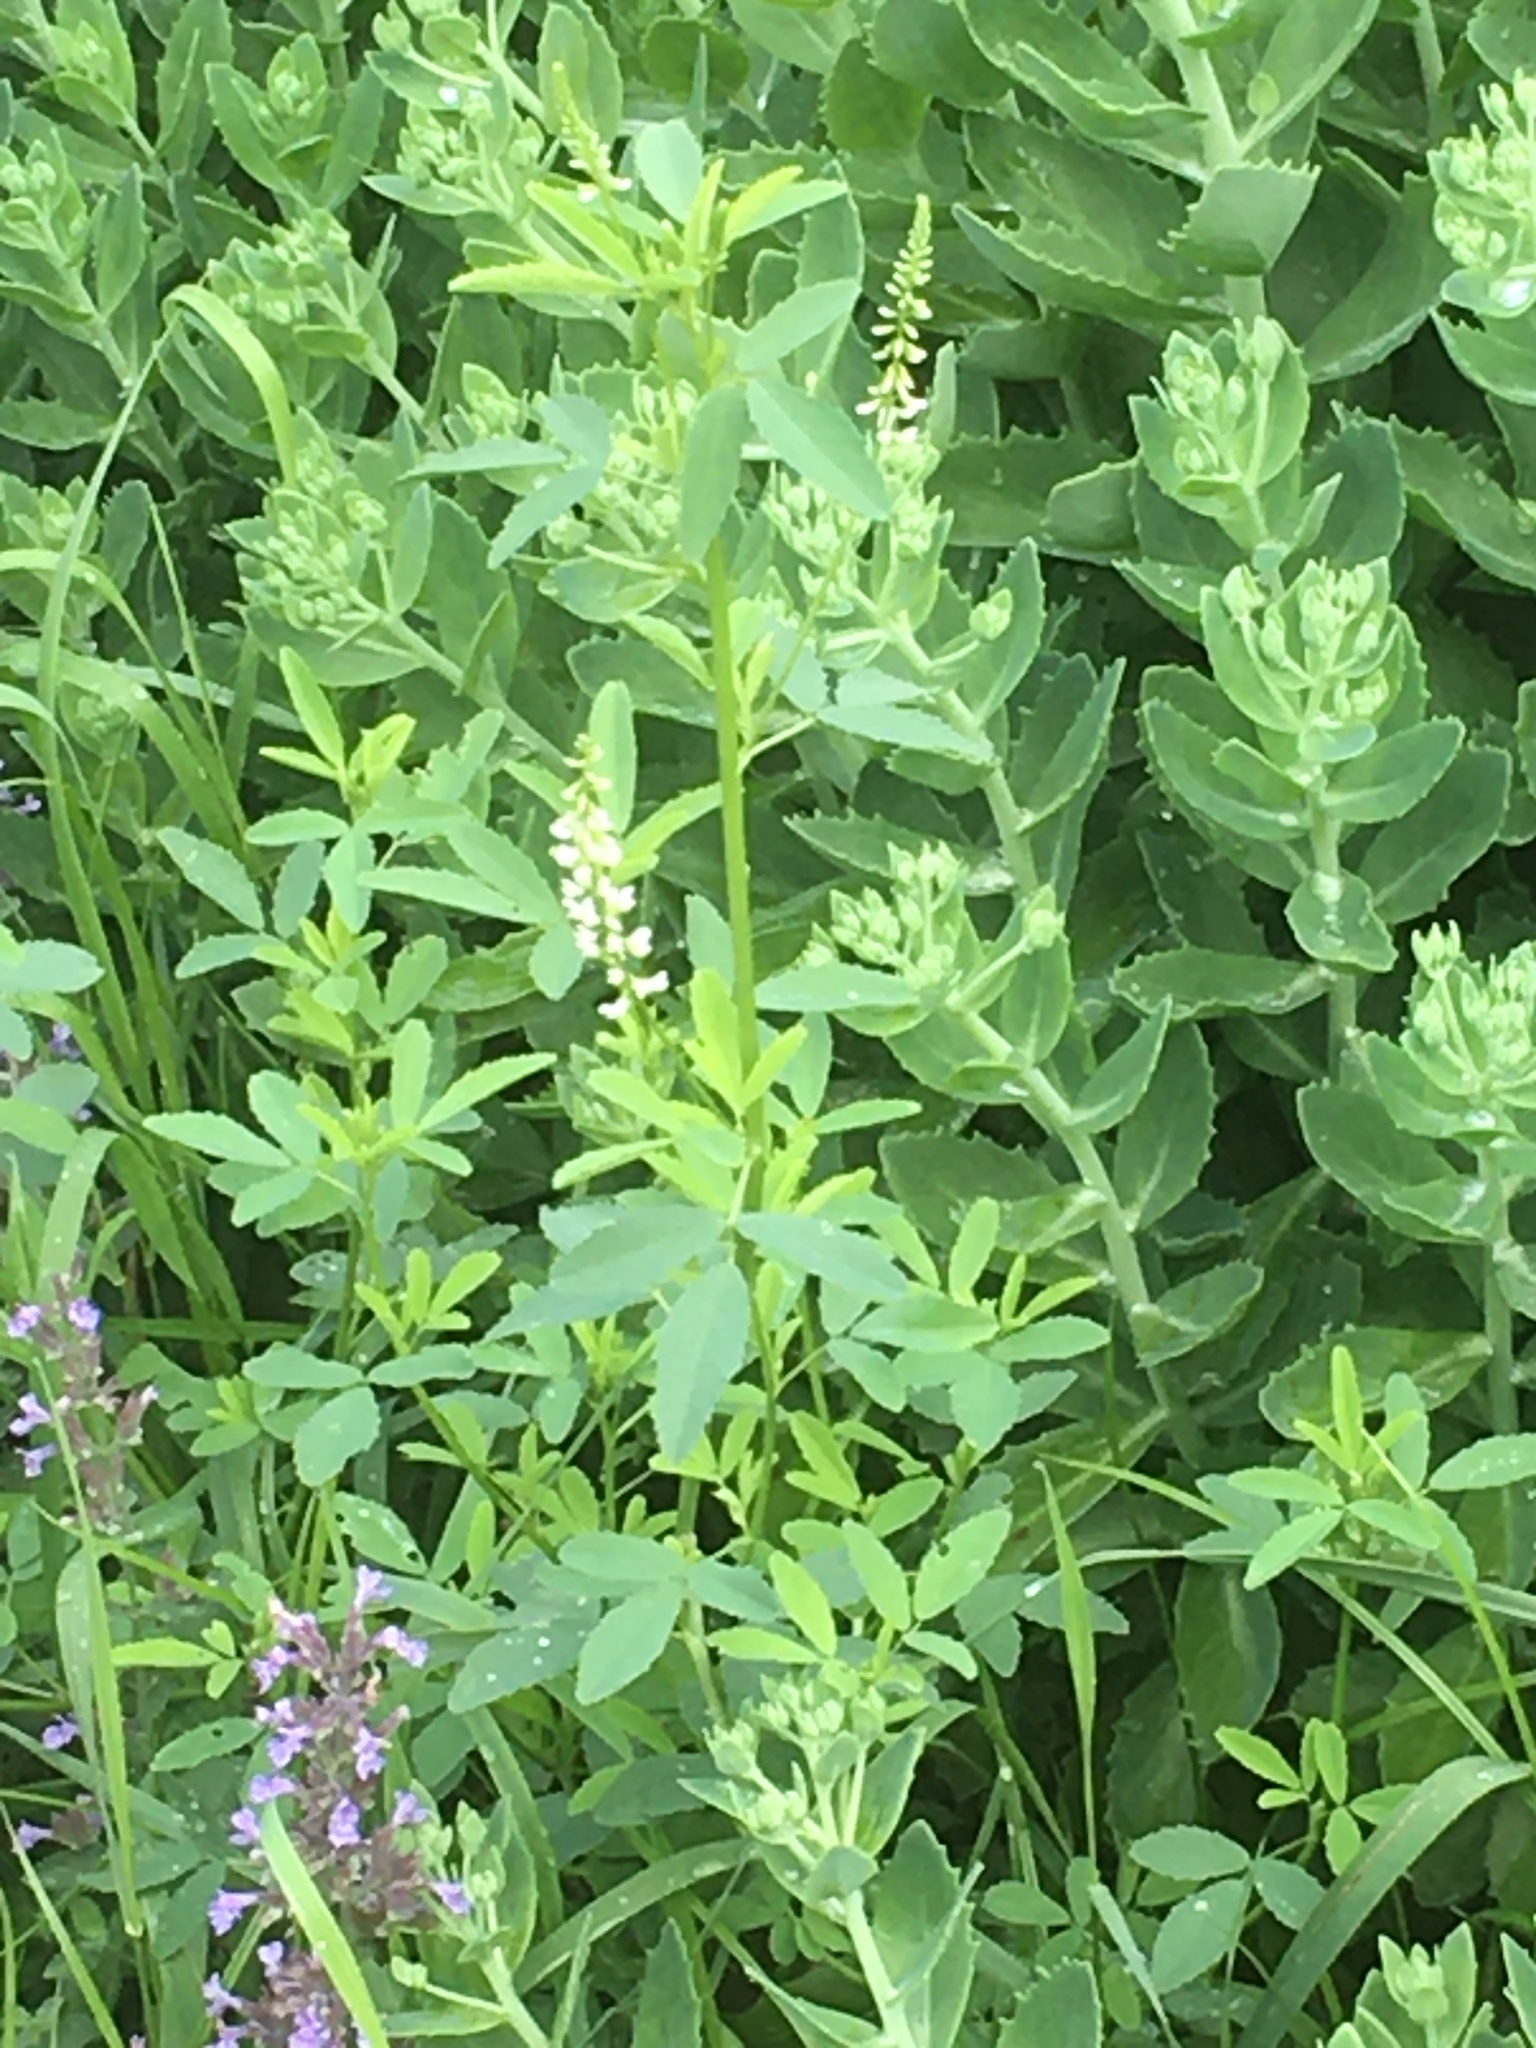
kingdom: Plantae
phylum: Tracheophyta
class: Magnoliopsida
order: Fabales
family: Fabaceae
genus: Melilotus
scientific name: Melilotus albus
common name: White melilot
